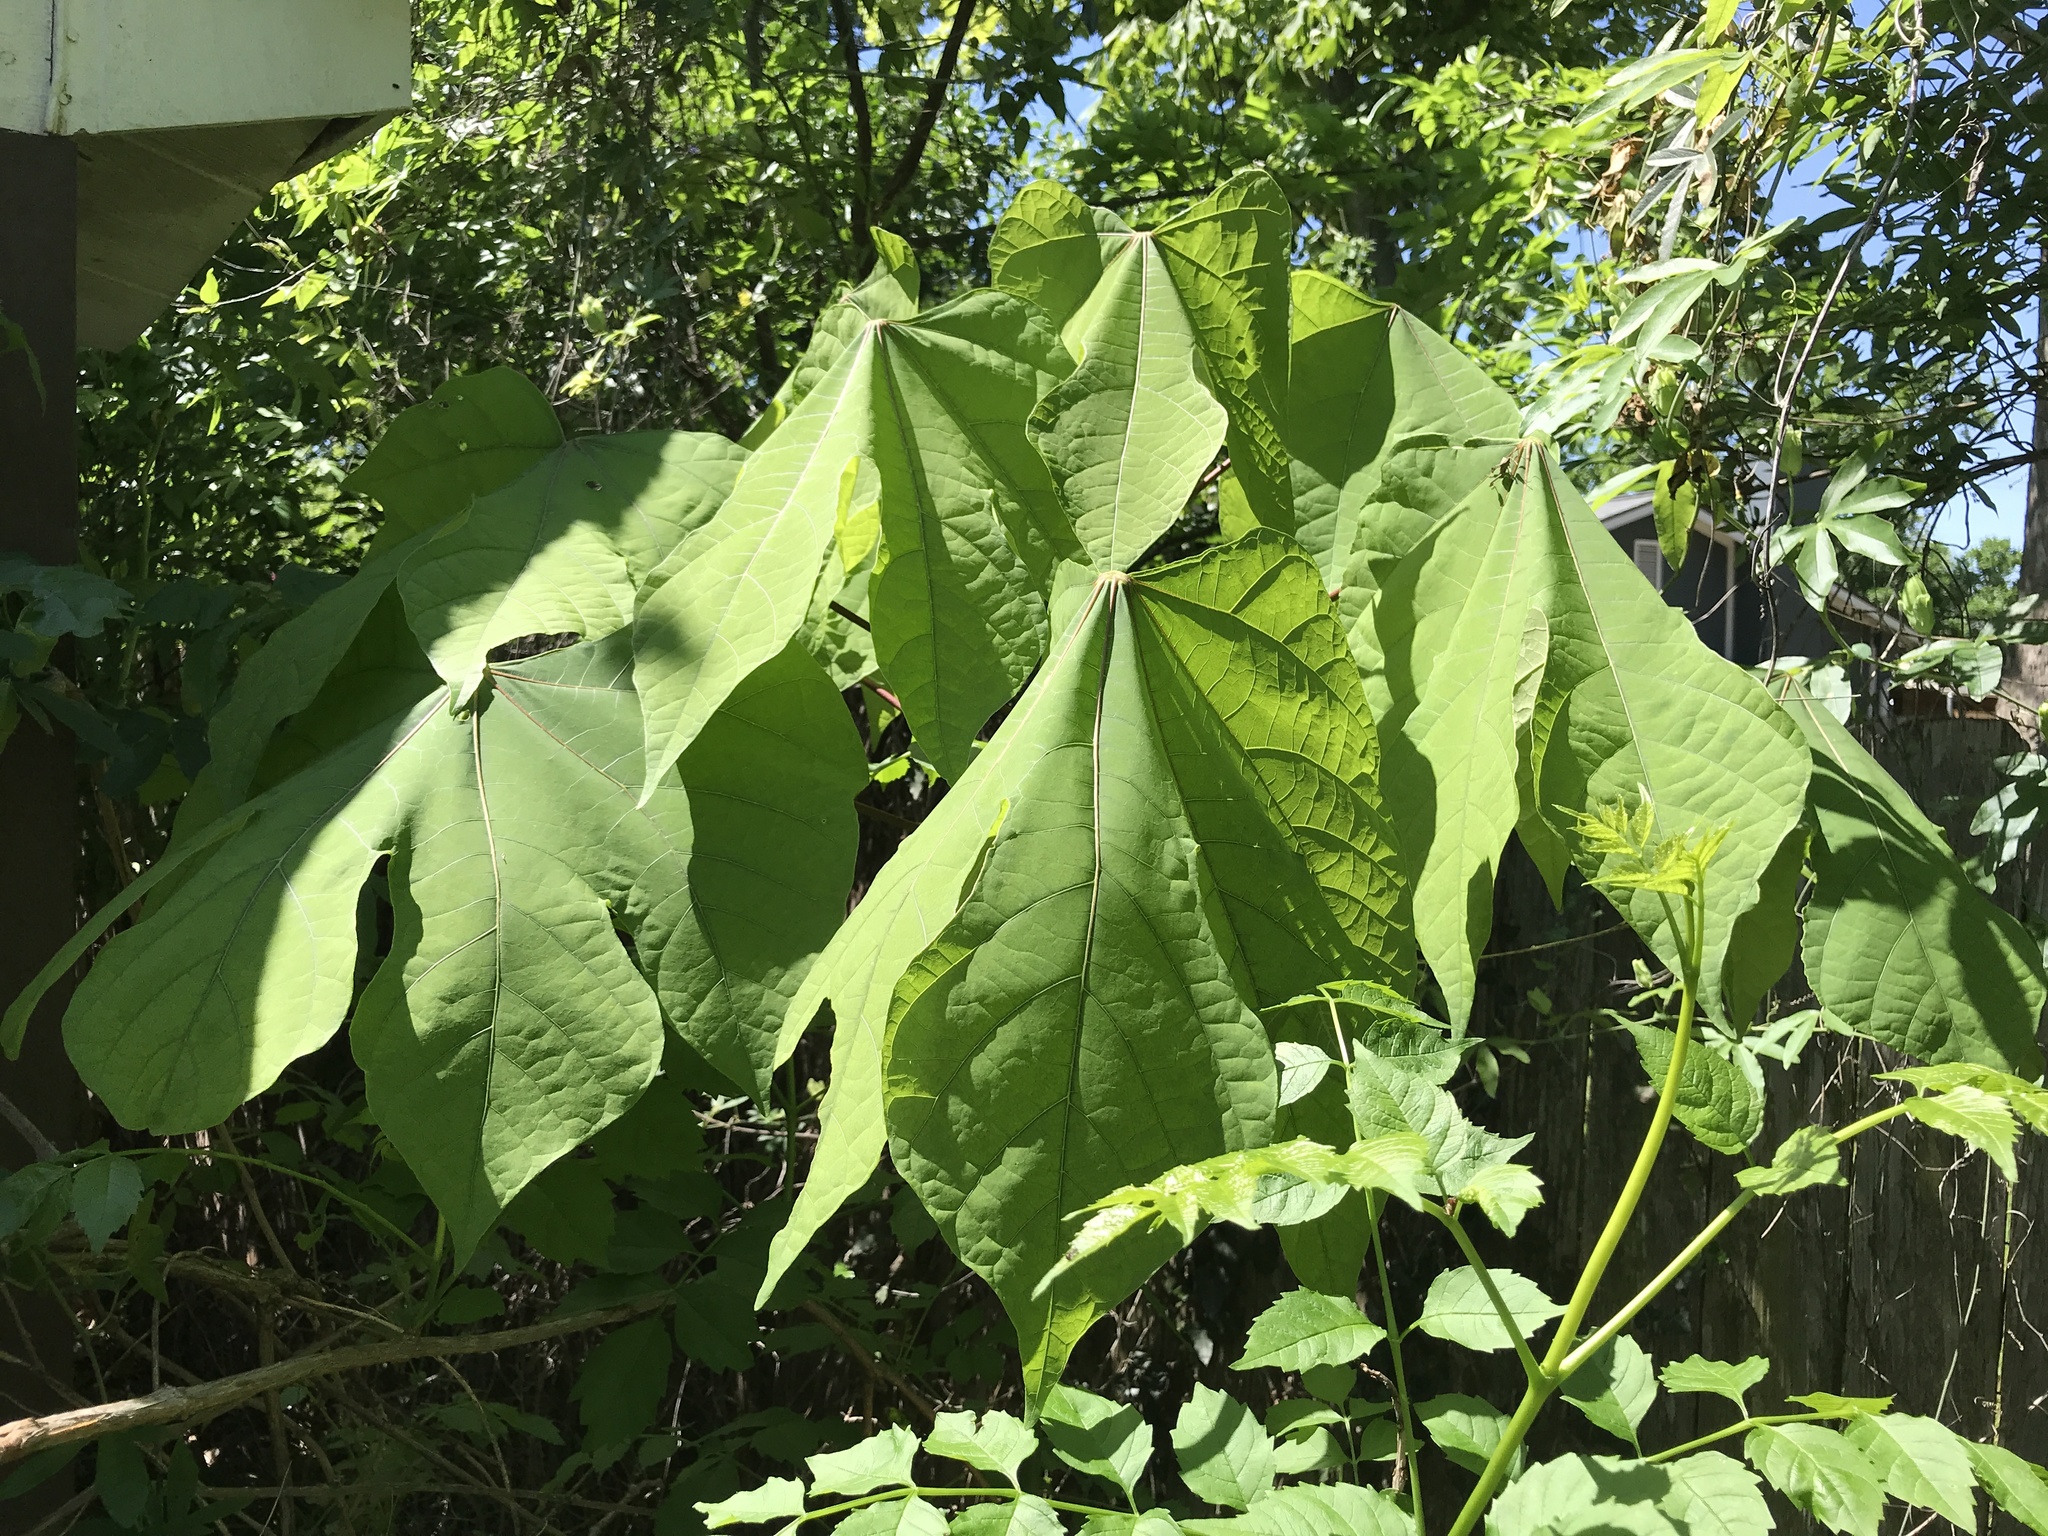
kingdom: Plantae
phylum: Tracheophyta
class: Magnoliopsida
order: Malvales
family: Malvaceae
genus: Firmiana
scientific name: Firmiana simplex
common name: Chinese parasoltree
